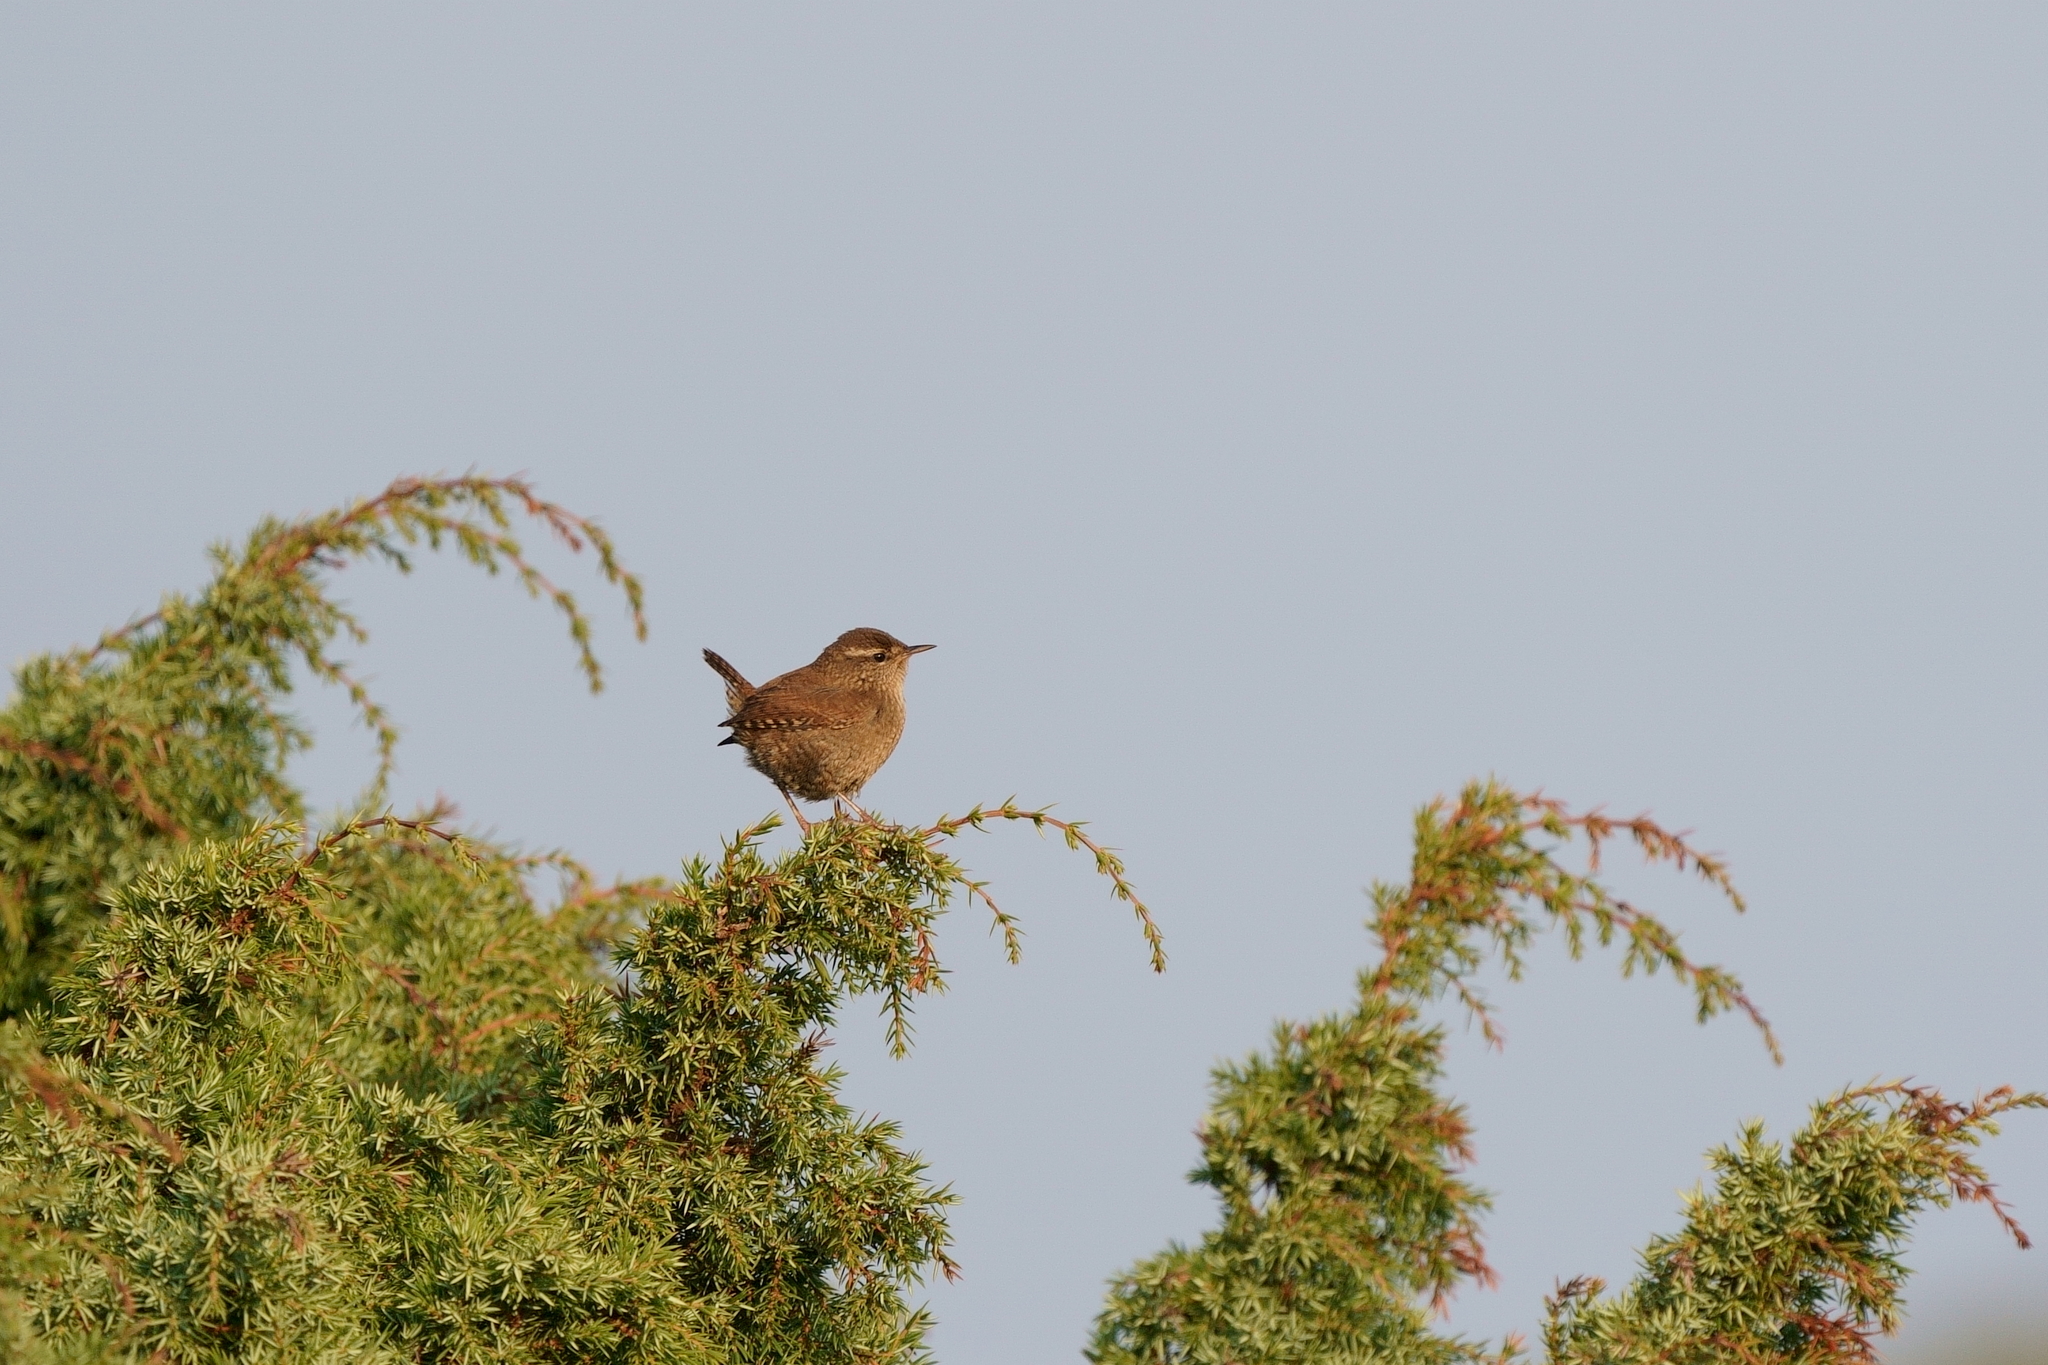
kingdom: Animalia
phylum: Chordata
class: Aves
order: Passeriformes
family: Troglodytidae
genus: Troglodytes
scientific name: Troglodytes troglodytes
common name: Eurasian wren
